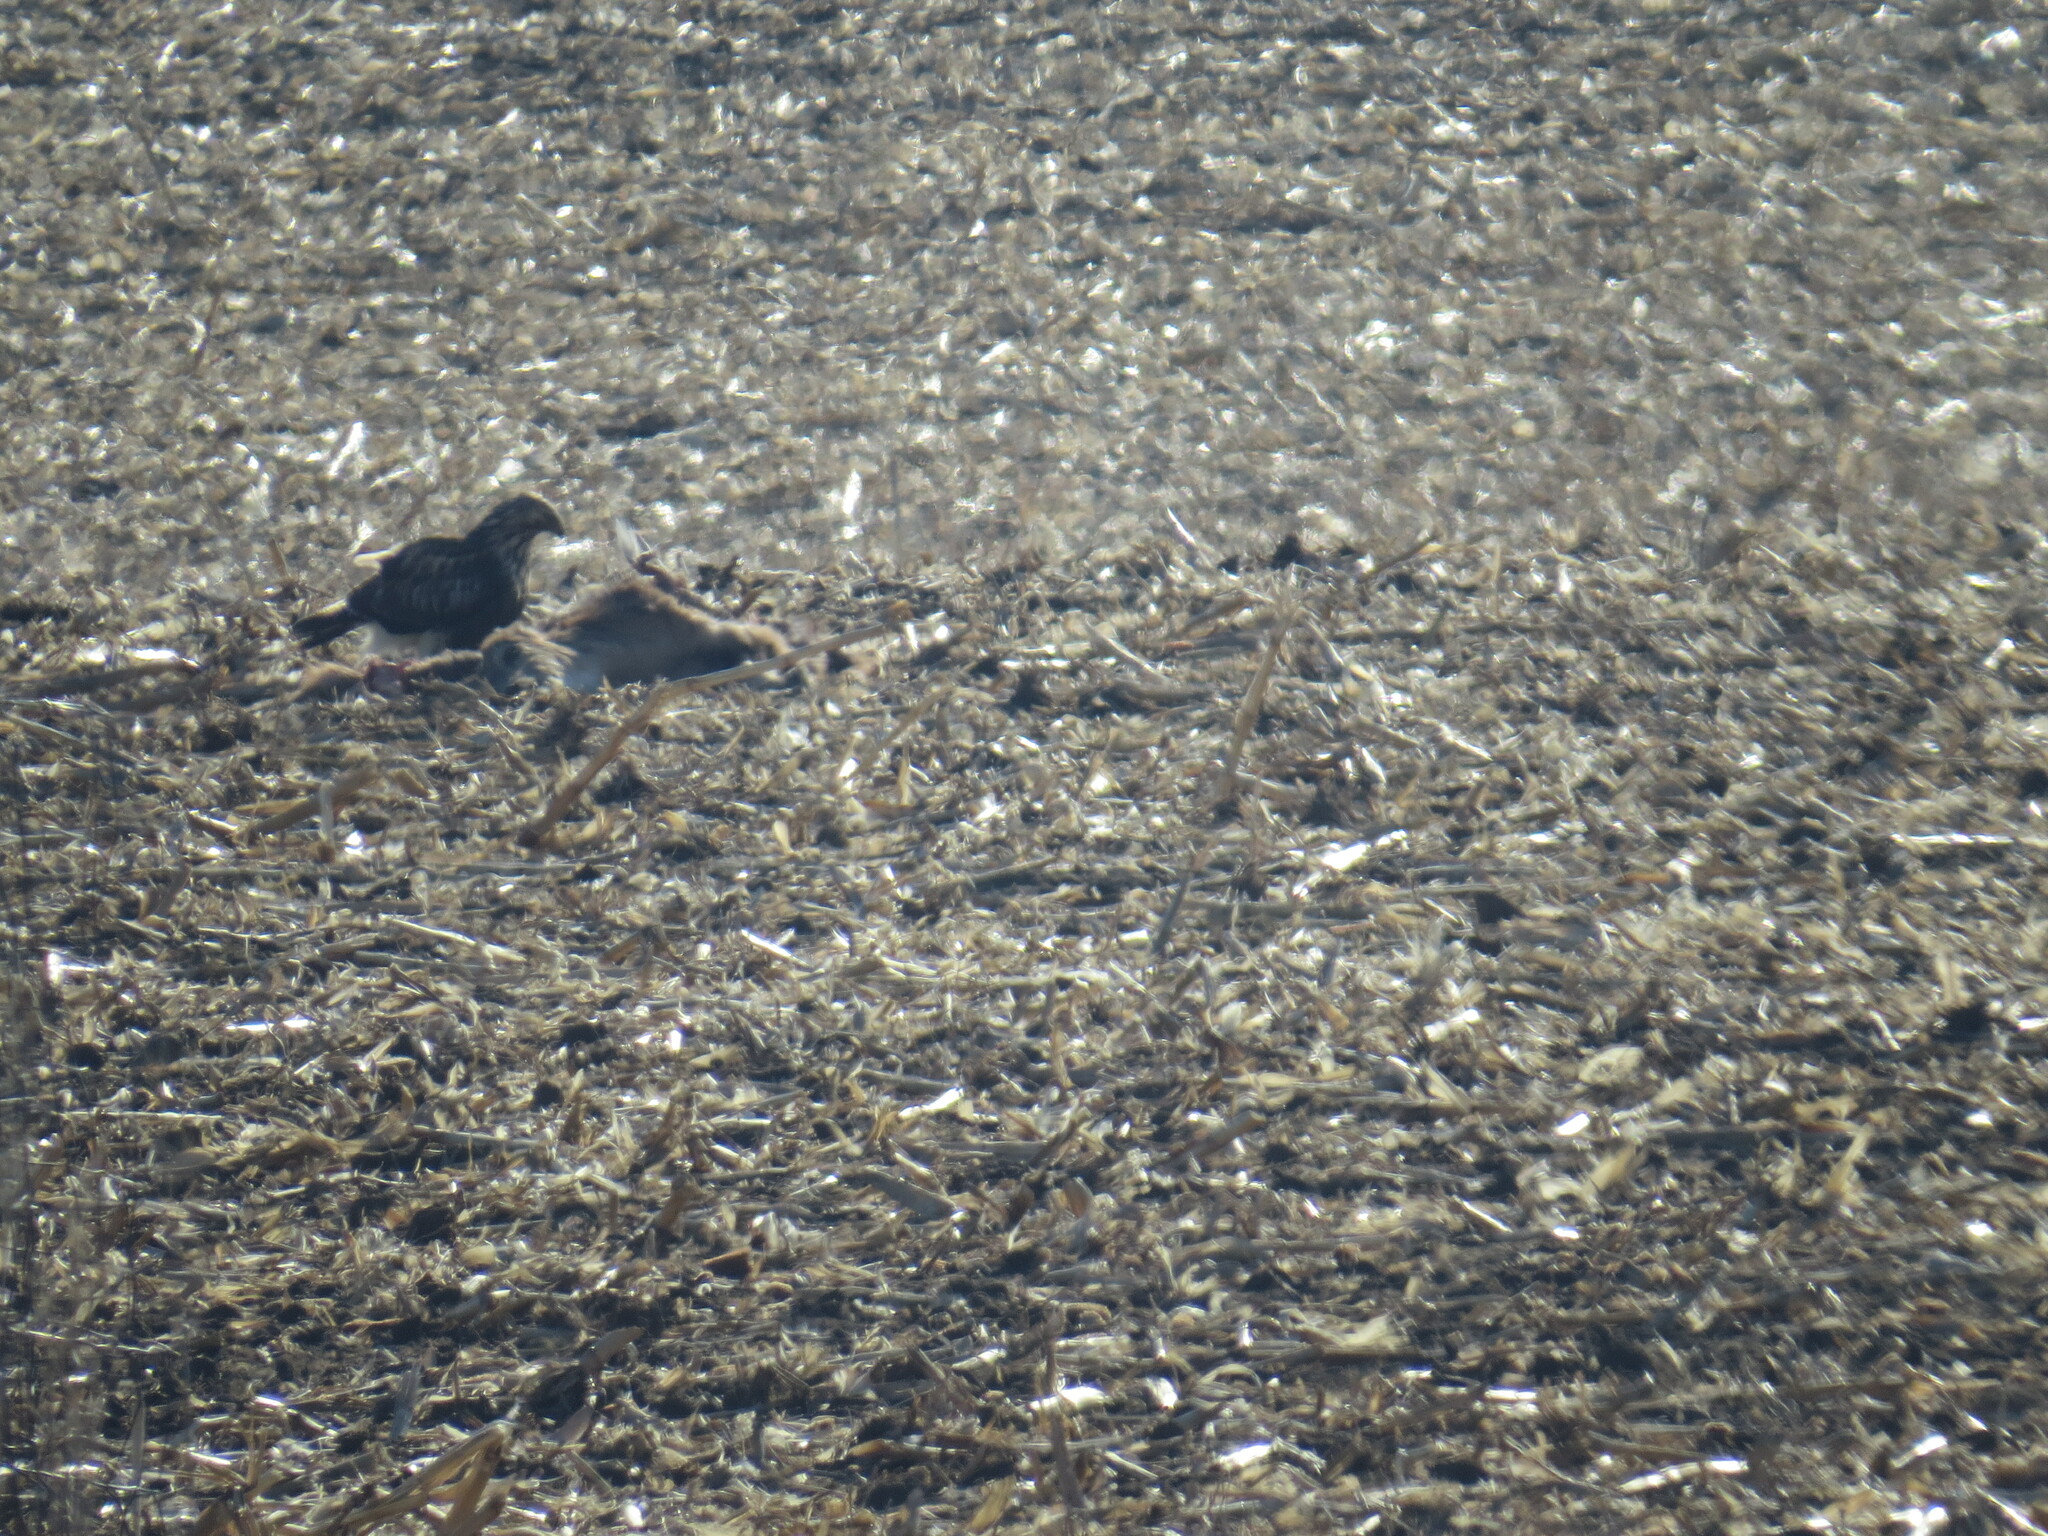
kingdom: Animalia
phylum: Chordata
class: Aves
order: Accipitriformes
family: Accipitridae
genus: Buteo
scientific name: Buteo lagopus
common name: Rough-legged buzzard
